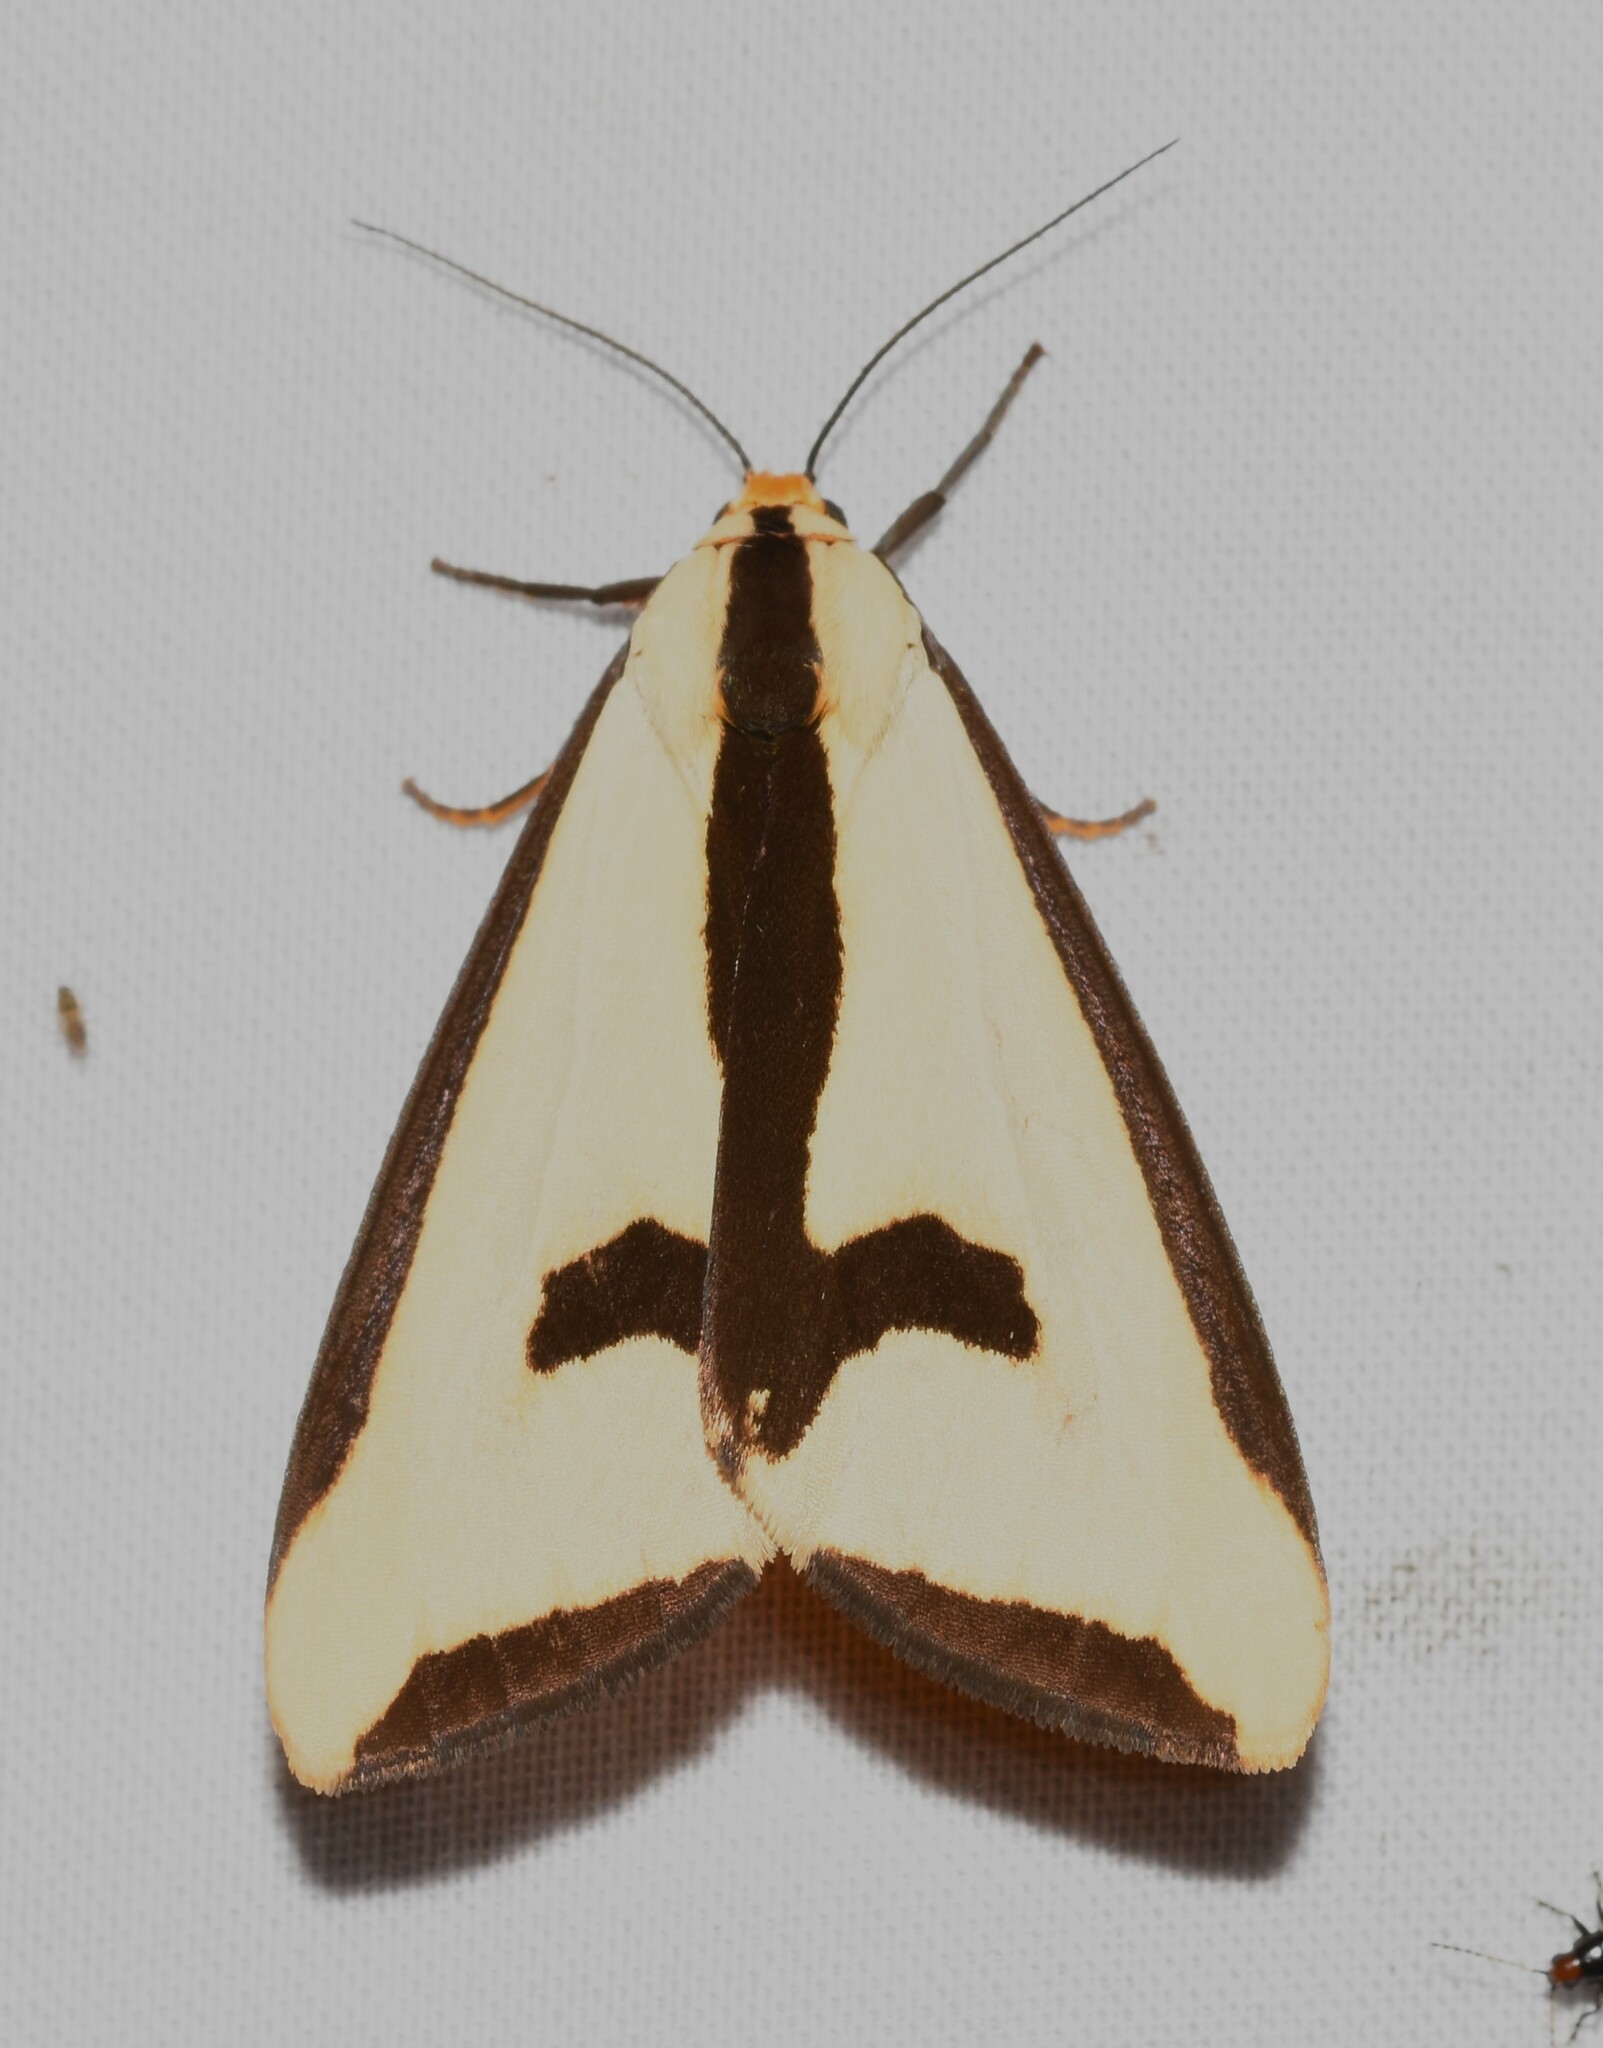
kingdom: Animalia
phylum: Arthropoda
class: Insecta
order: Lepidoptera
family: Erebidae
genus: Haploa
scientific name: Haploa clymene
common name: Clymene moth
